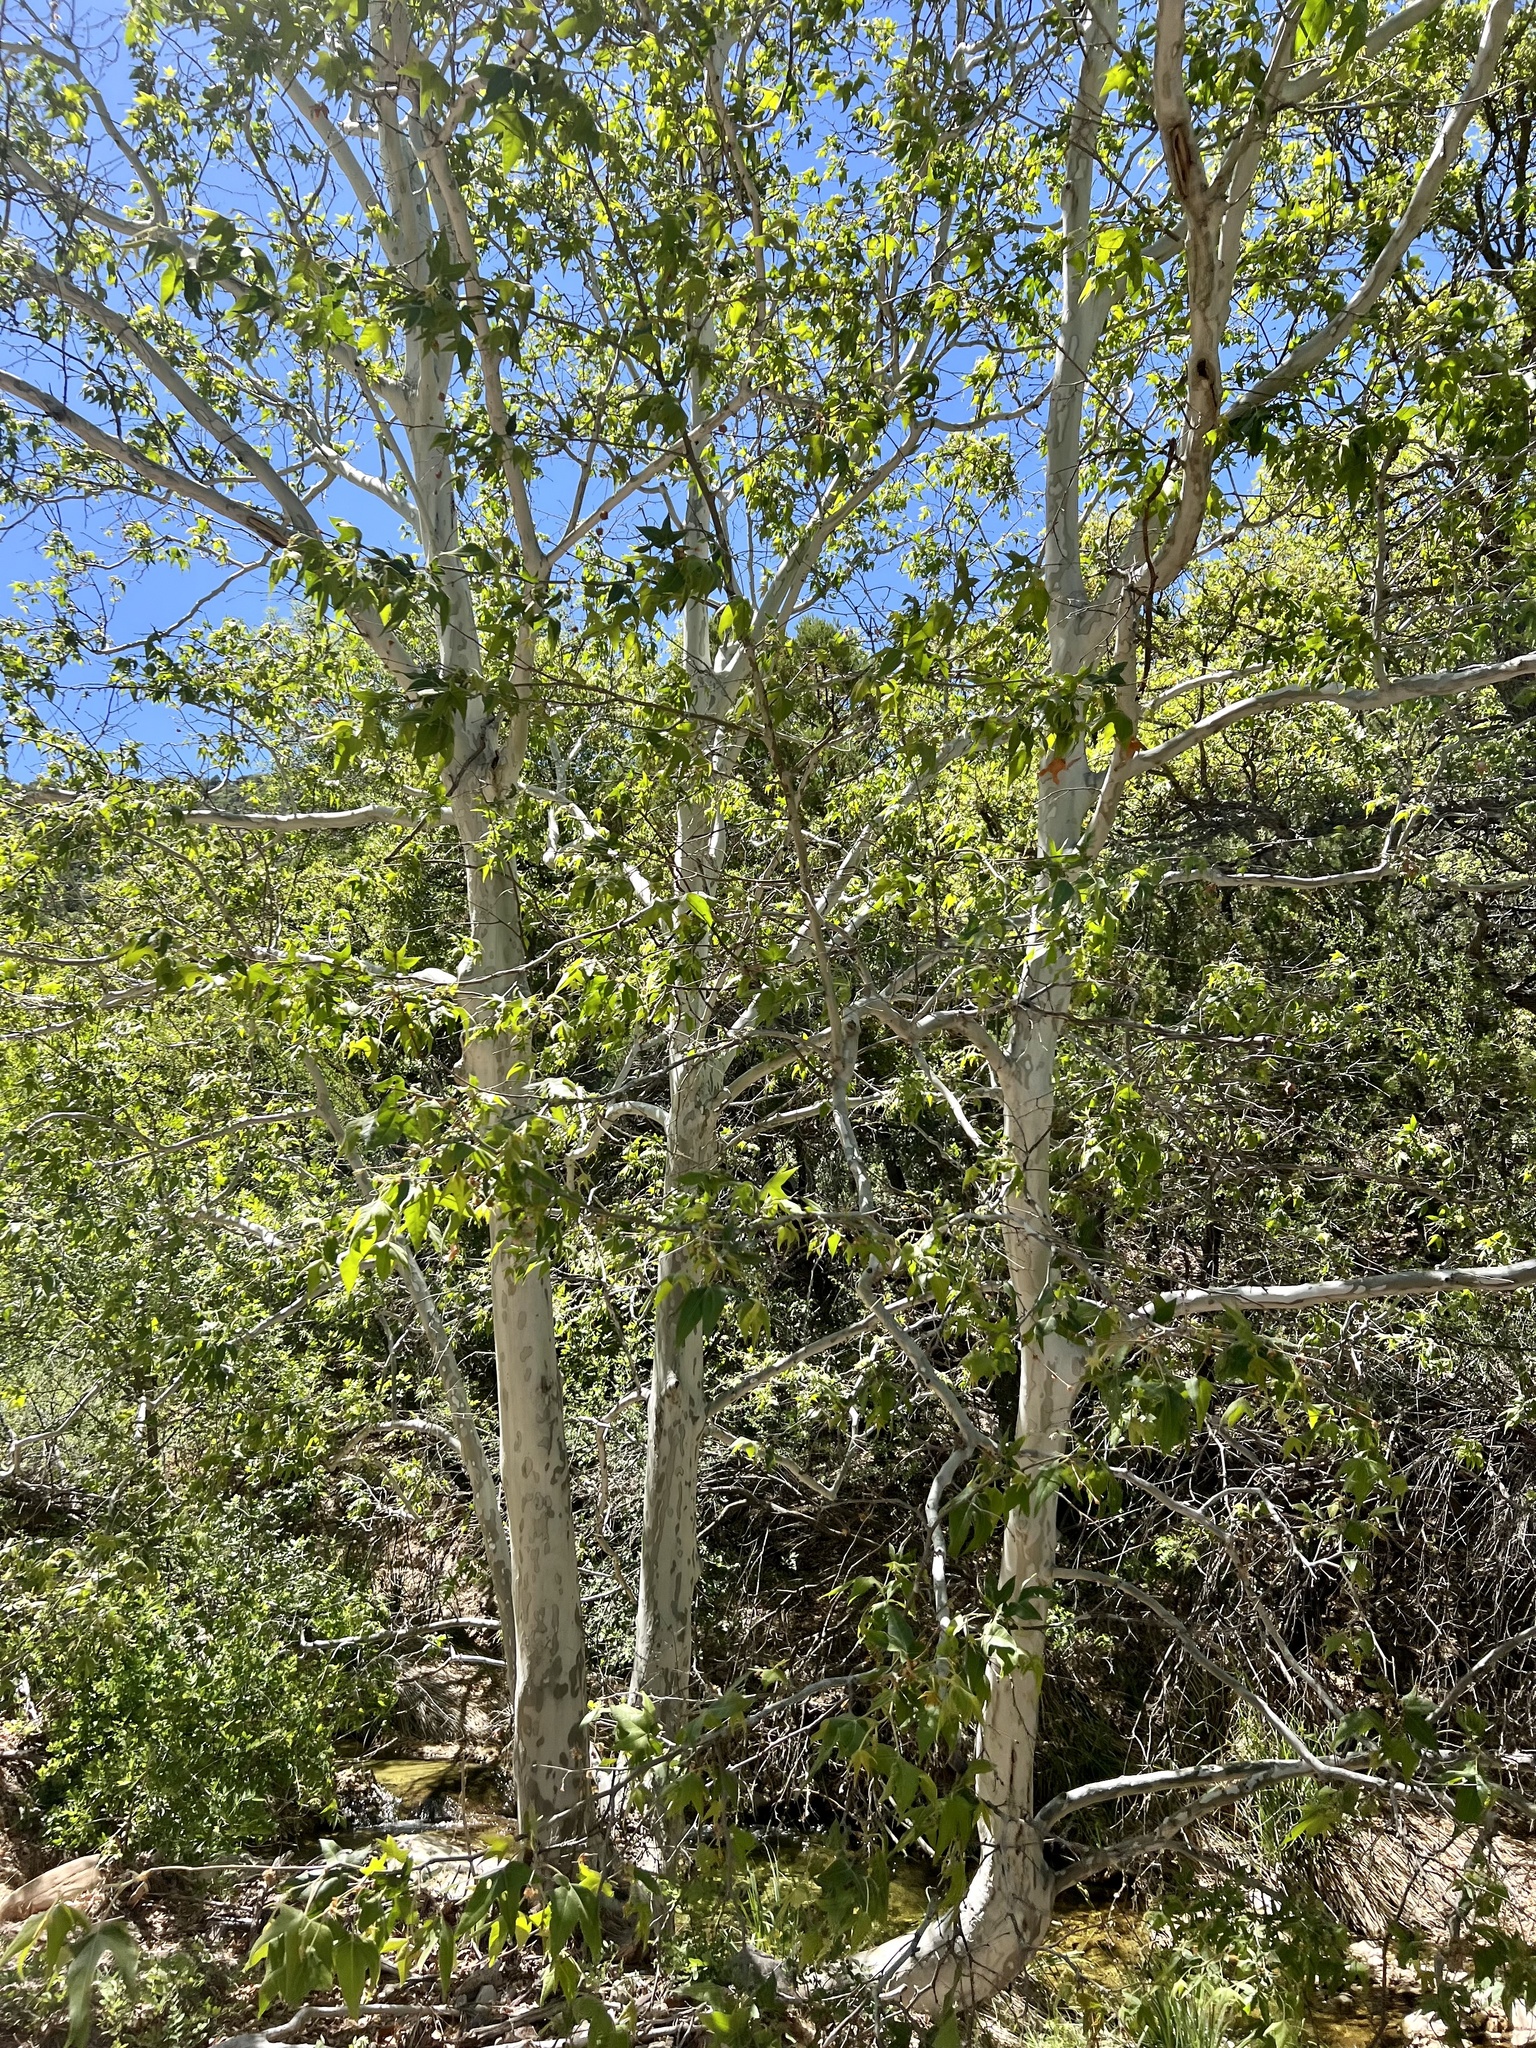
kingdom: Plantae
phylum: Tracheophyta
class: Magnoliopsida
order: Proteales
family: Platanaceae
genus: Platanus
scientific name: Platanus wrightii
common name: Arizona sycamore
